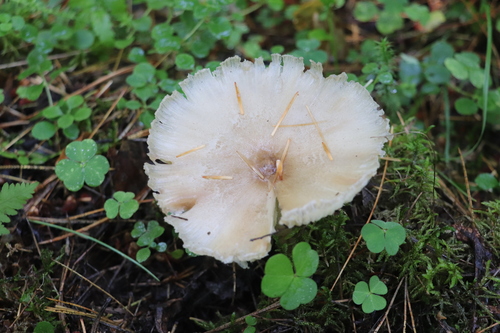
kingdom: Fungi
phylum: Basidiomycota
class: Agaricomycetes
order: Agaricales
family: Tricholomataceae
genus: Megacollybia
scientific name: Megacollybia platyphylla
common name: Whitelaced shank
